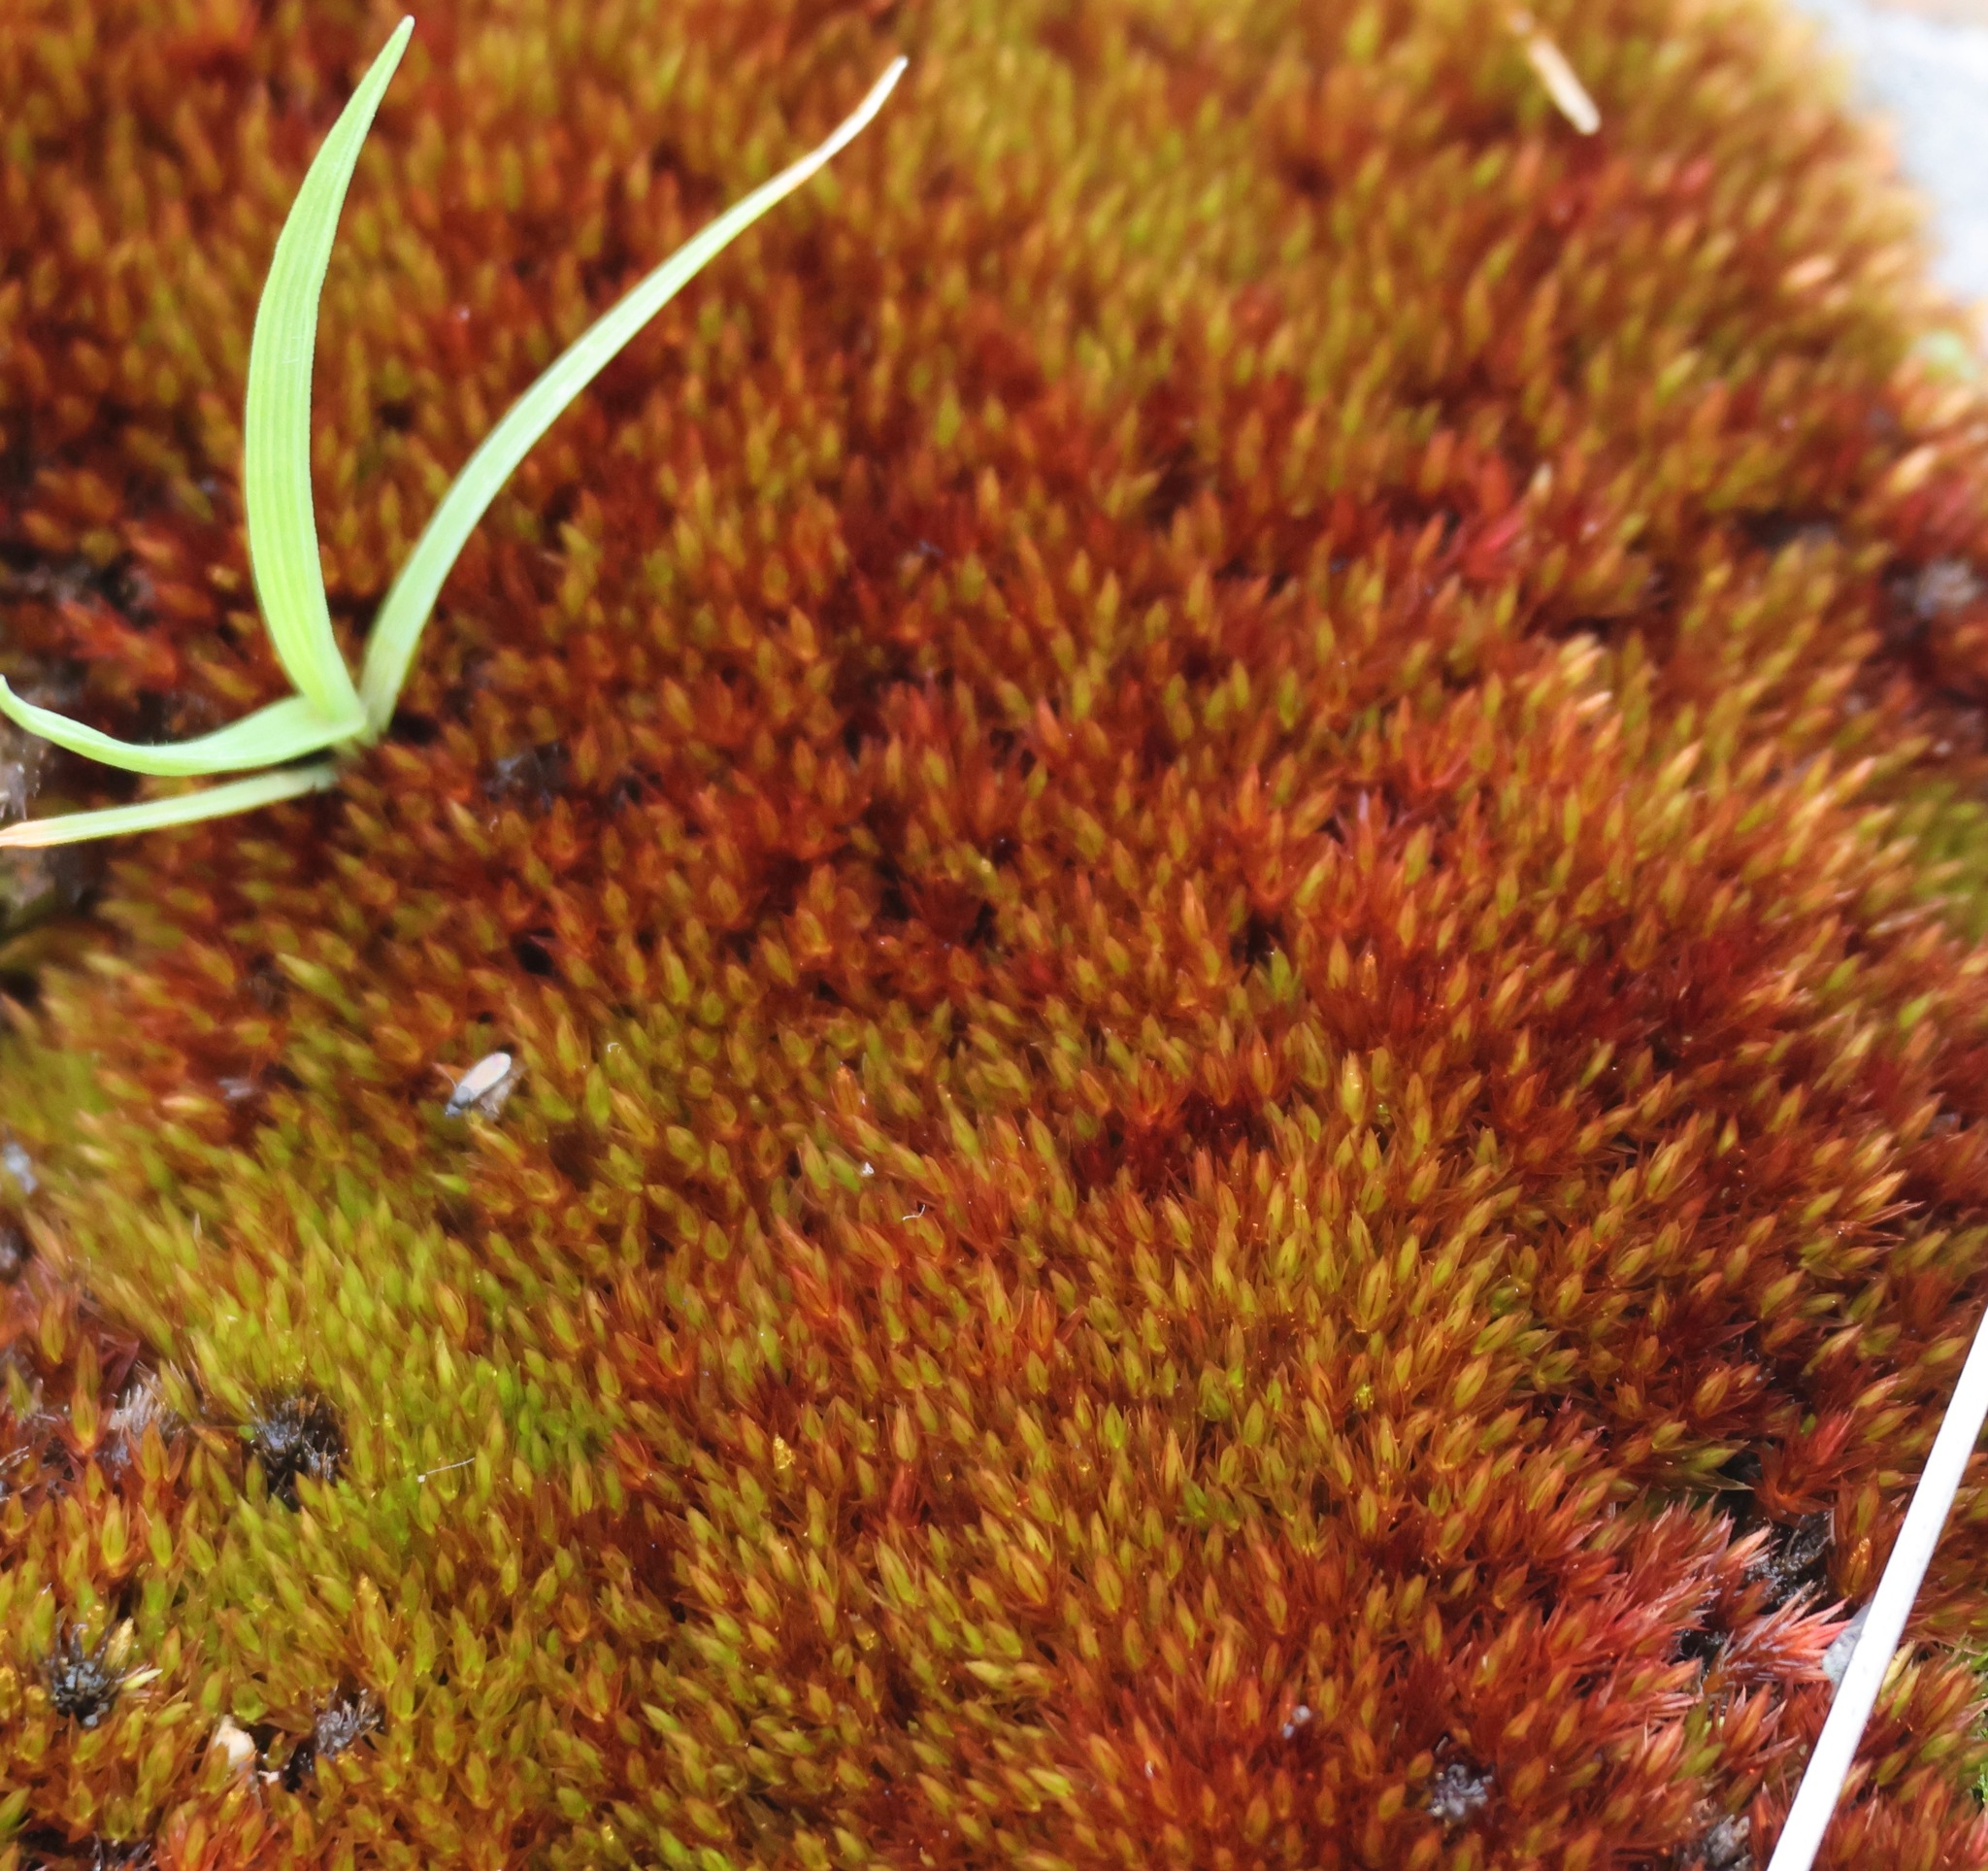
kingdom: Plantae
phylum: Bryophyta
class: Bryopsida
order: Bryales
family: Bryaceae
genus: Imbribryum
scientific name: Imbribryum alpinum
